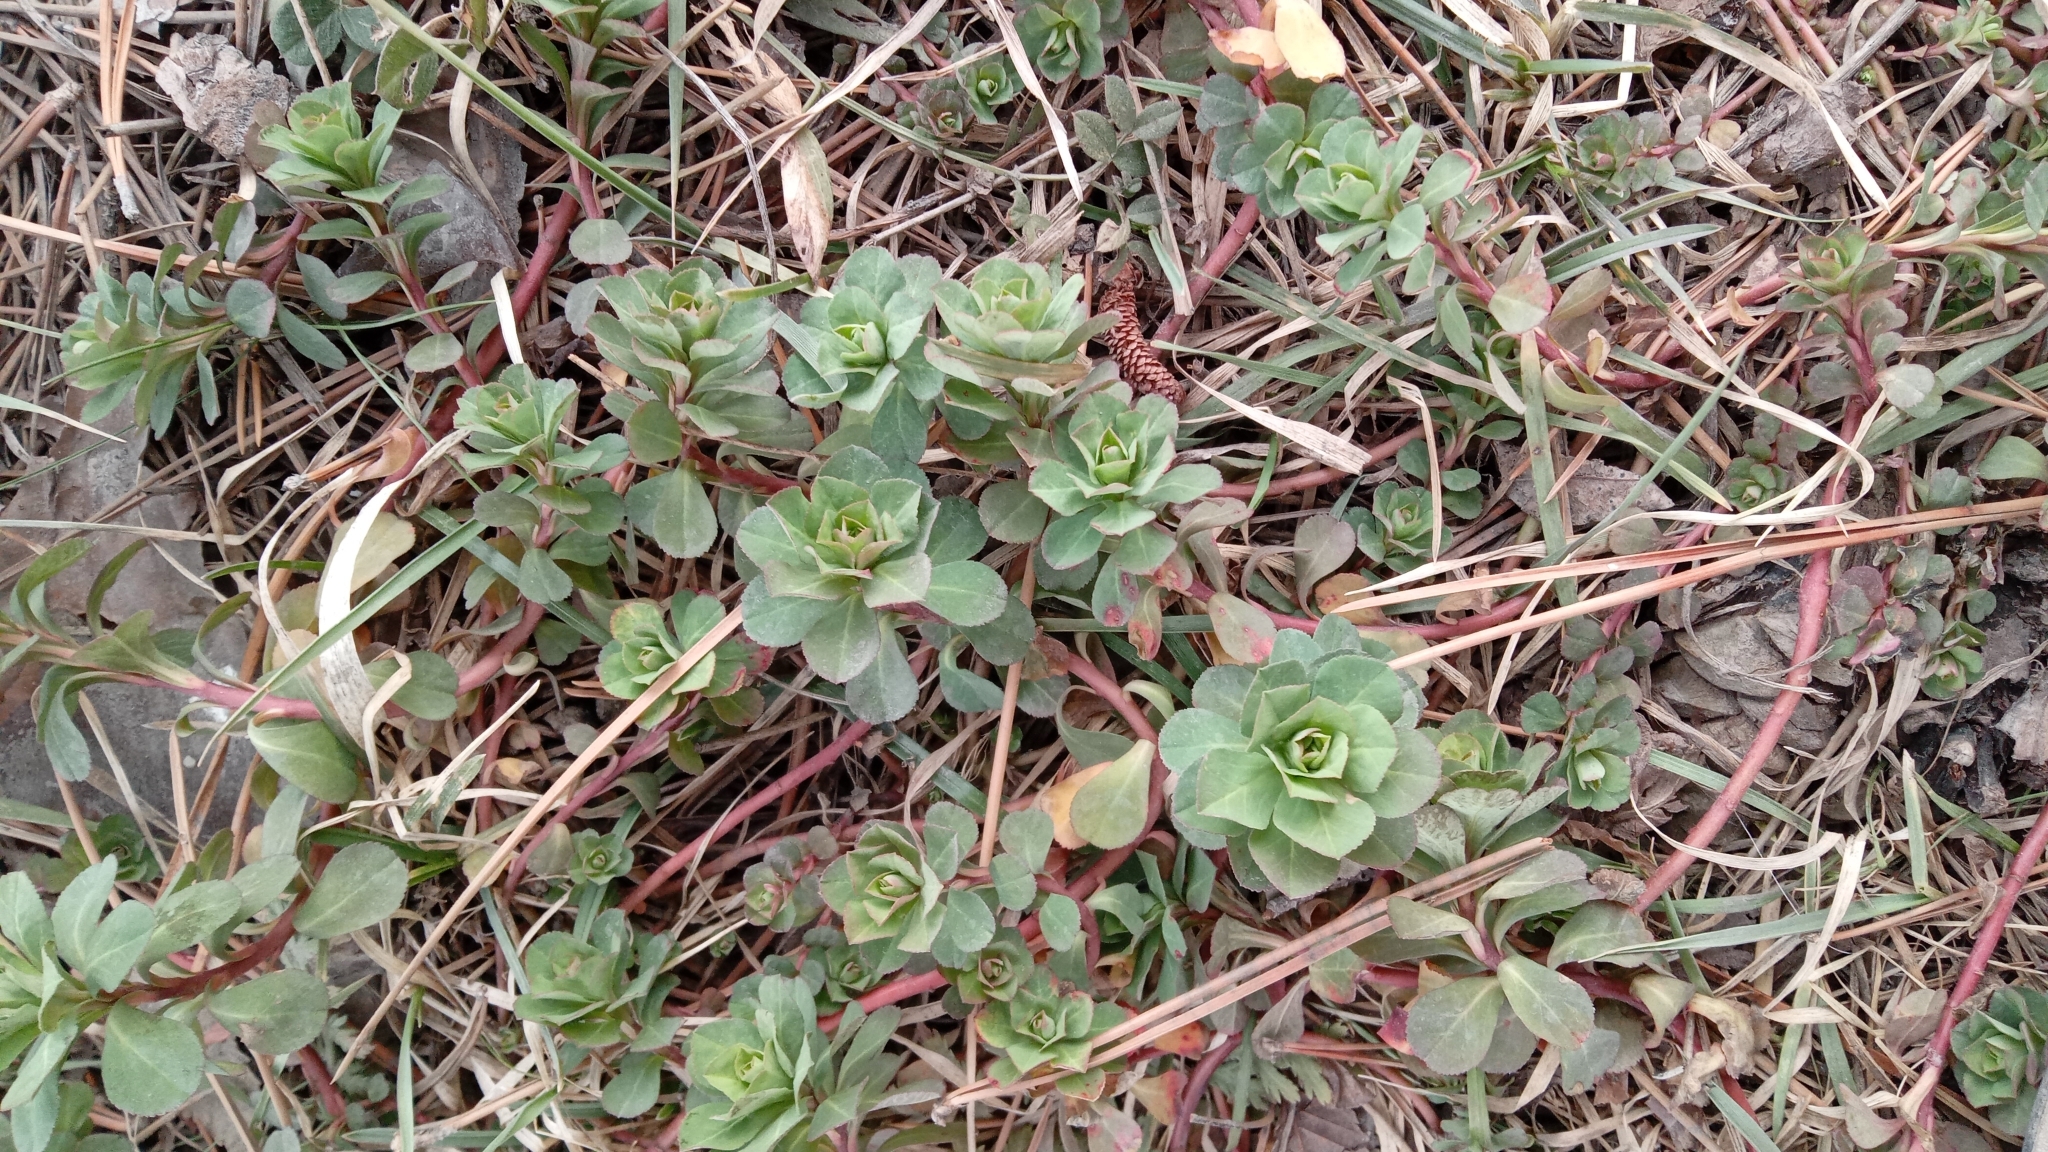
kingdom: Plantae
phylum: Tracheophyta
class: Magnoliopsida
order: Malpighiales
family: Euphorbiaceae
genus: Euphorbia
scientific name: Euphorbia helioscopia
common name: Sun spurge
